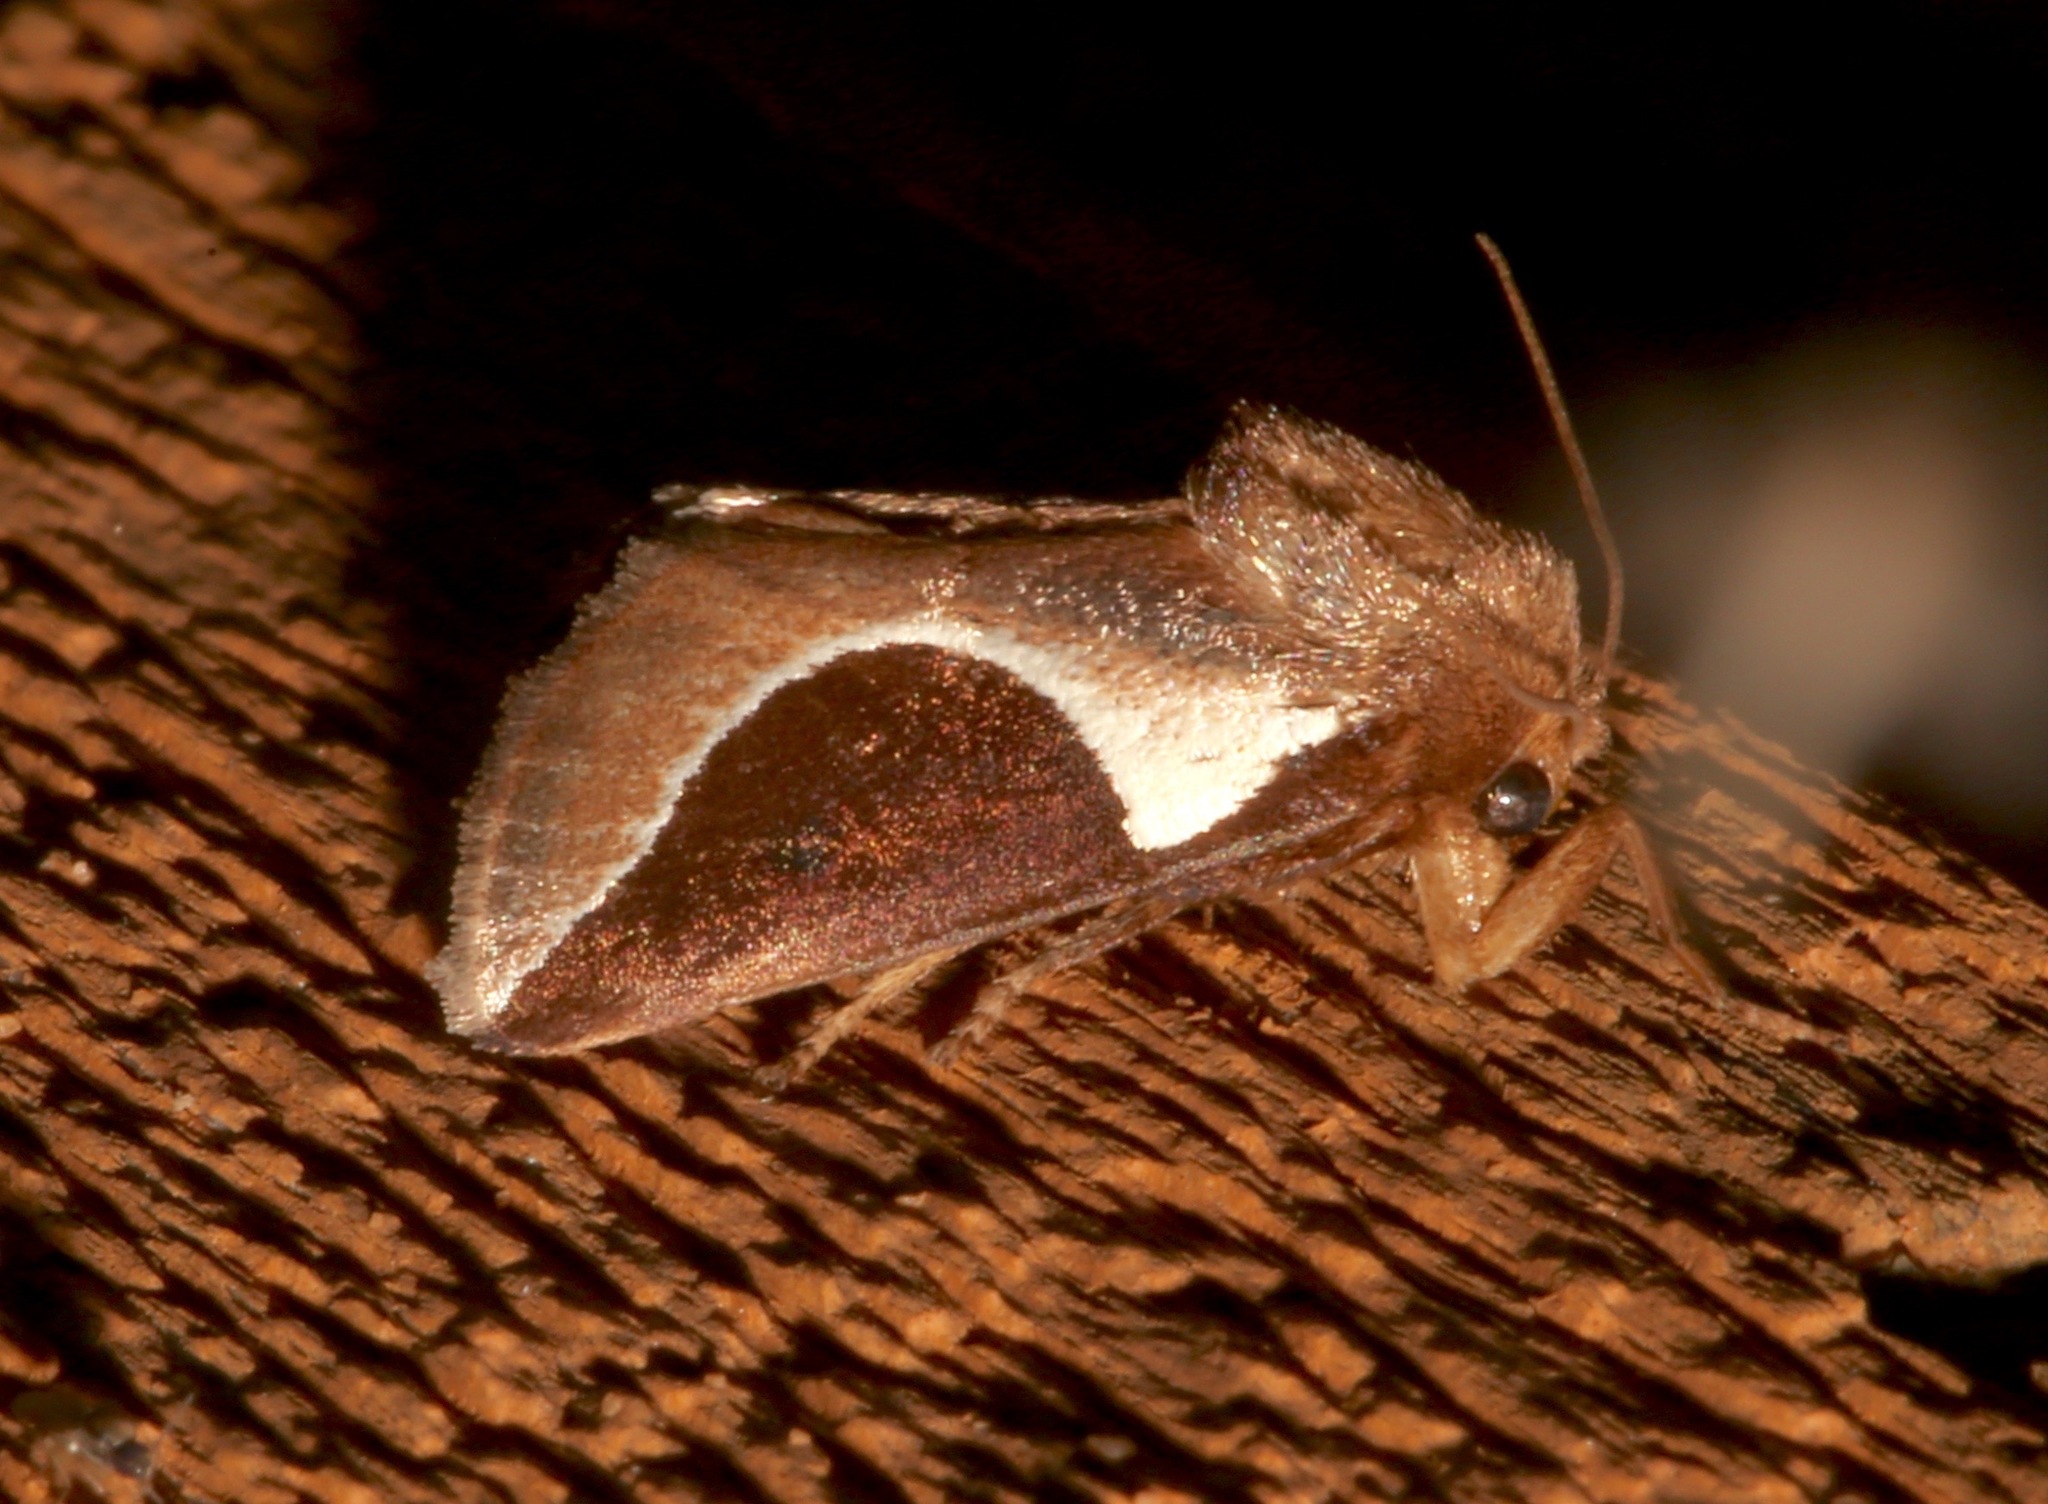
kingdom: Animalia
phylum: Arthropoda
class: Insecta
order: Lepidoptera
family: Limacodidae
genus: Prolimacodes
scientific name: Prolimacodes badia
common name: Skiff moth
